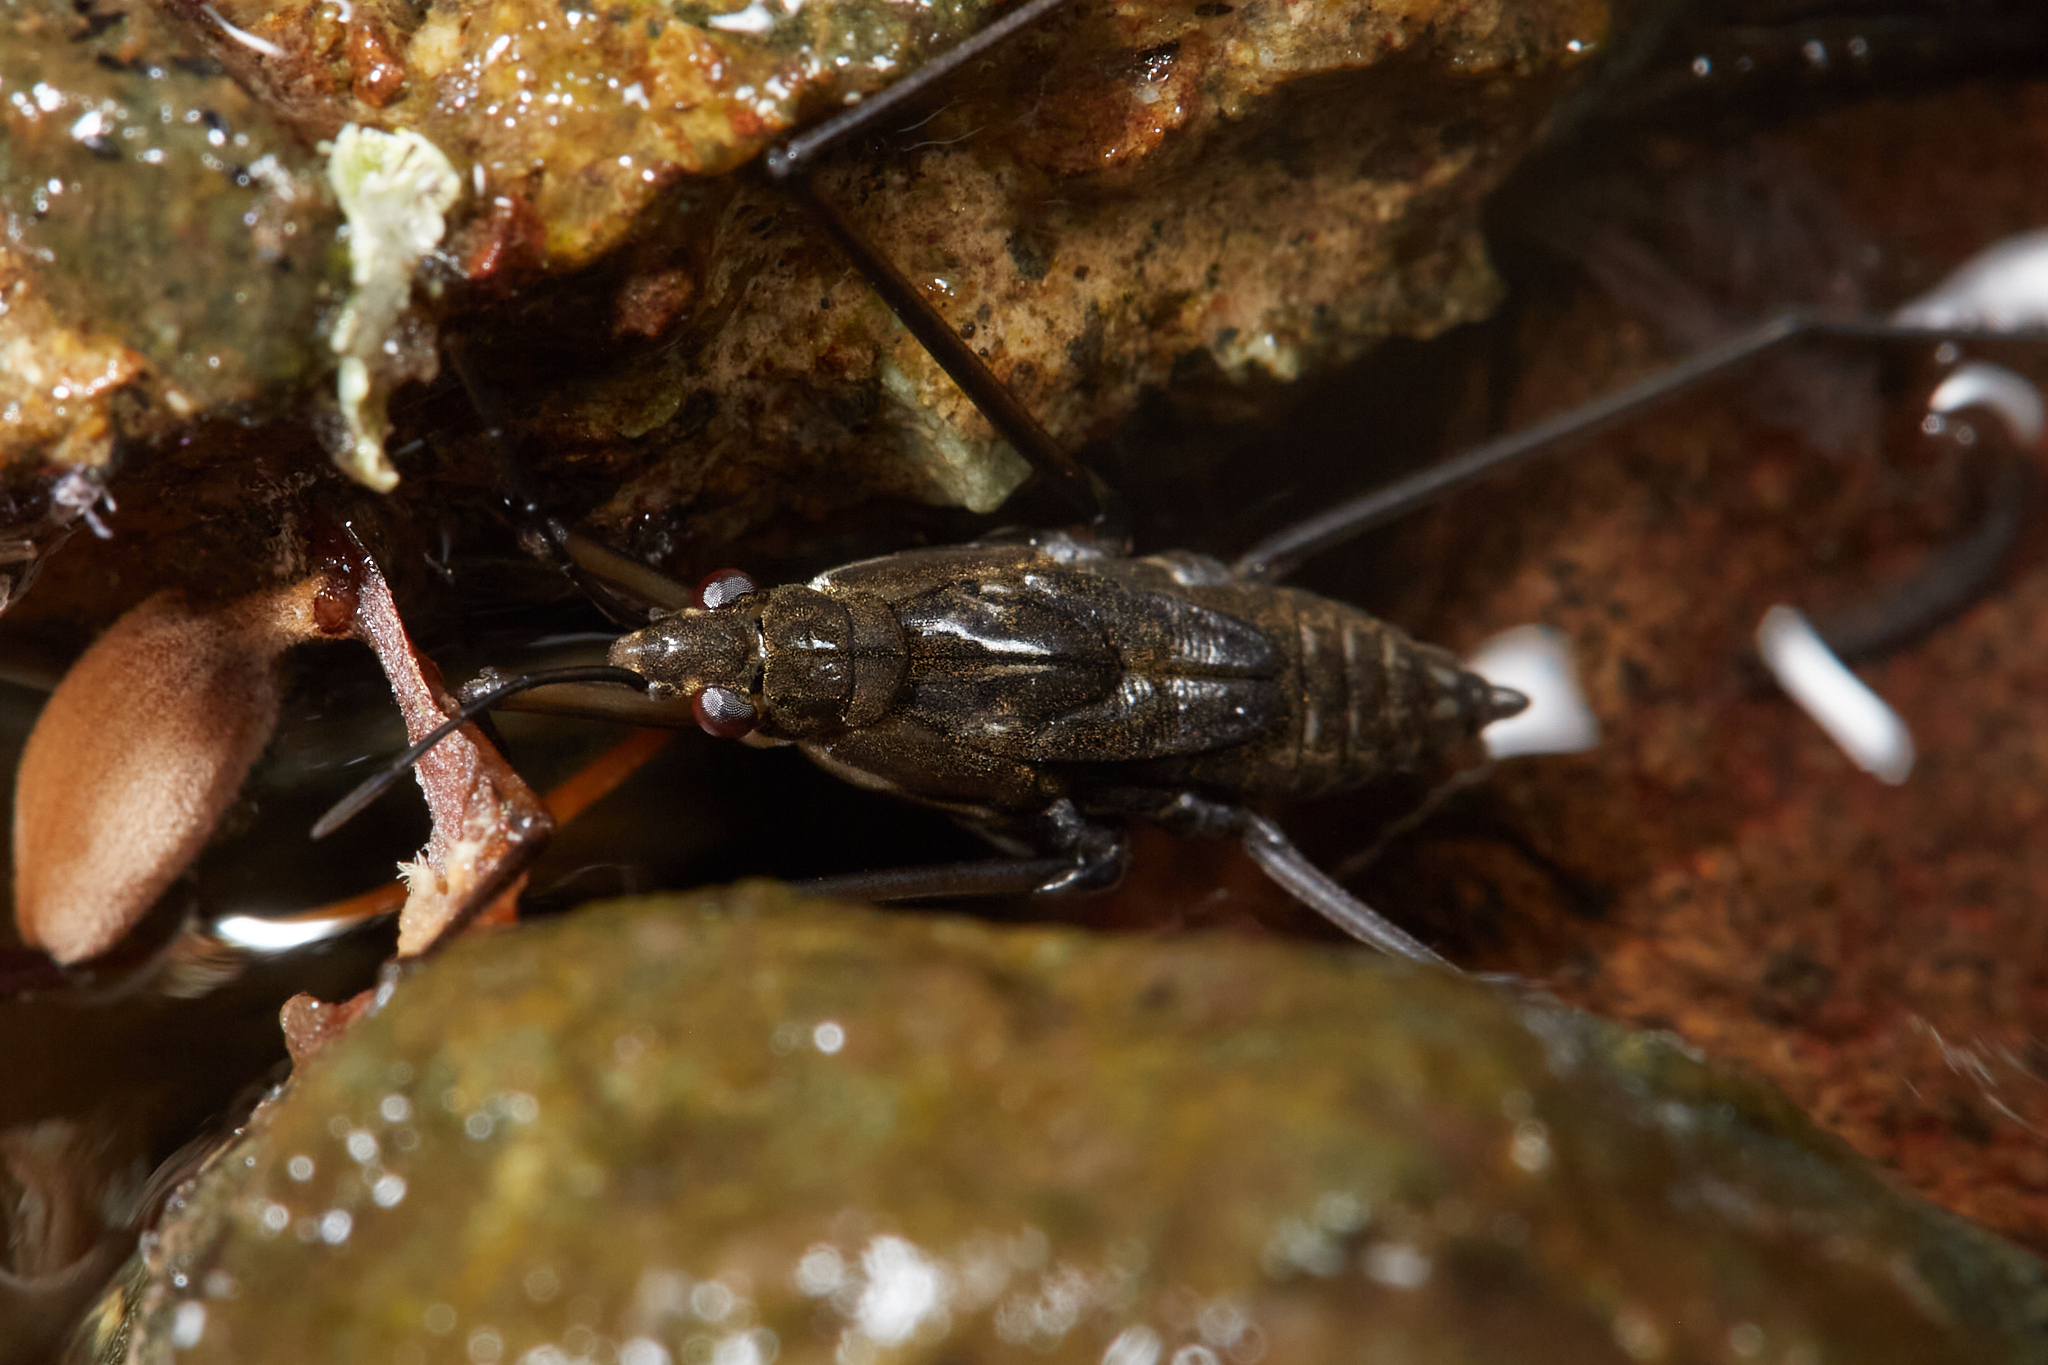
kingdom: Animalia
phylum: Arthropoda
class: Insecta
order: Hemiptera
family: Gerridae
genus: Aquarius
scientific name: Aquarius remigis
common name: Common water strider
